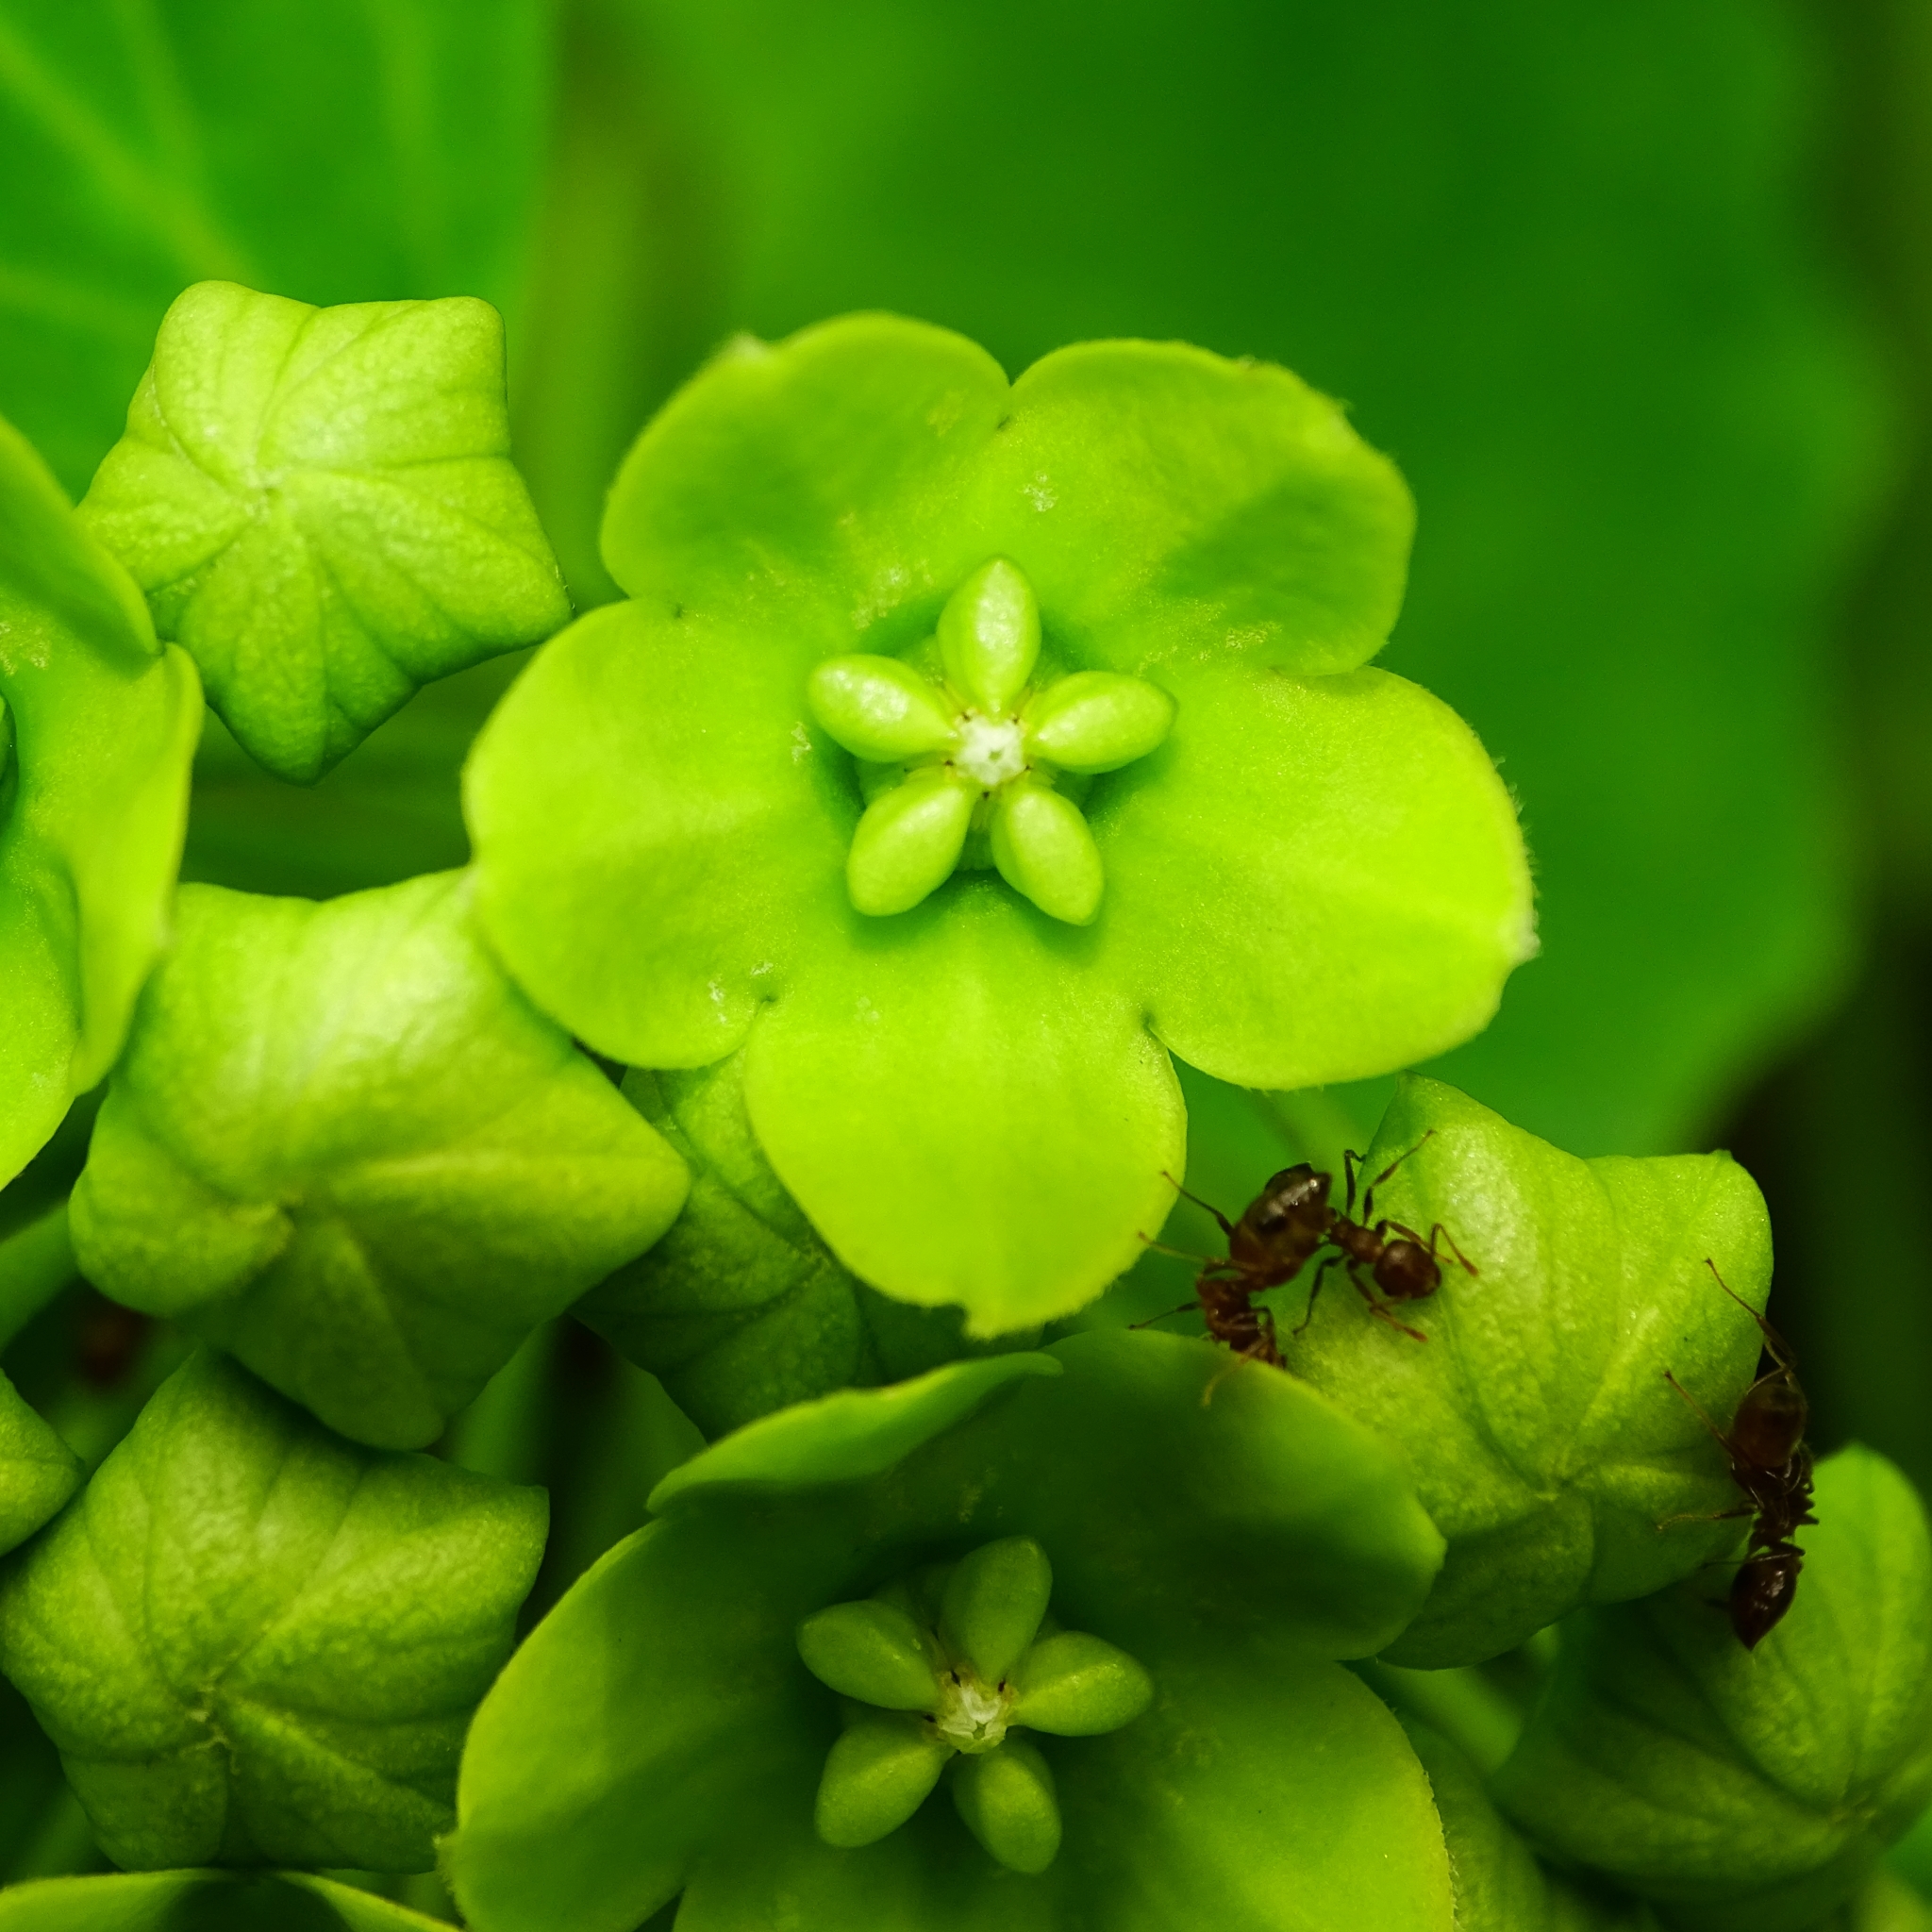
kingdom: Plantae
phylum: Tracheophyta
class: Magnoliopsida
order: Gentianales
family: Apocynaceae
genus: Stephanotis
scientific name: Stephanotis volubilis
